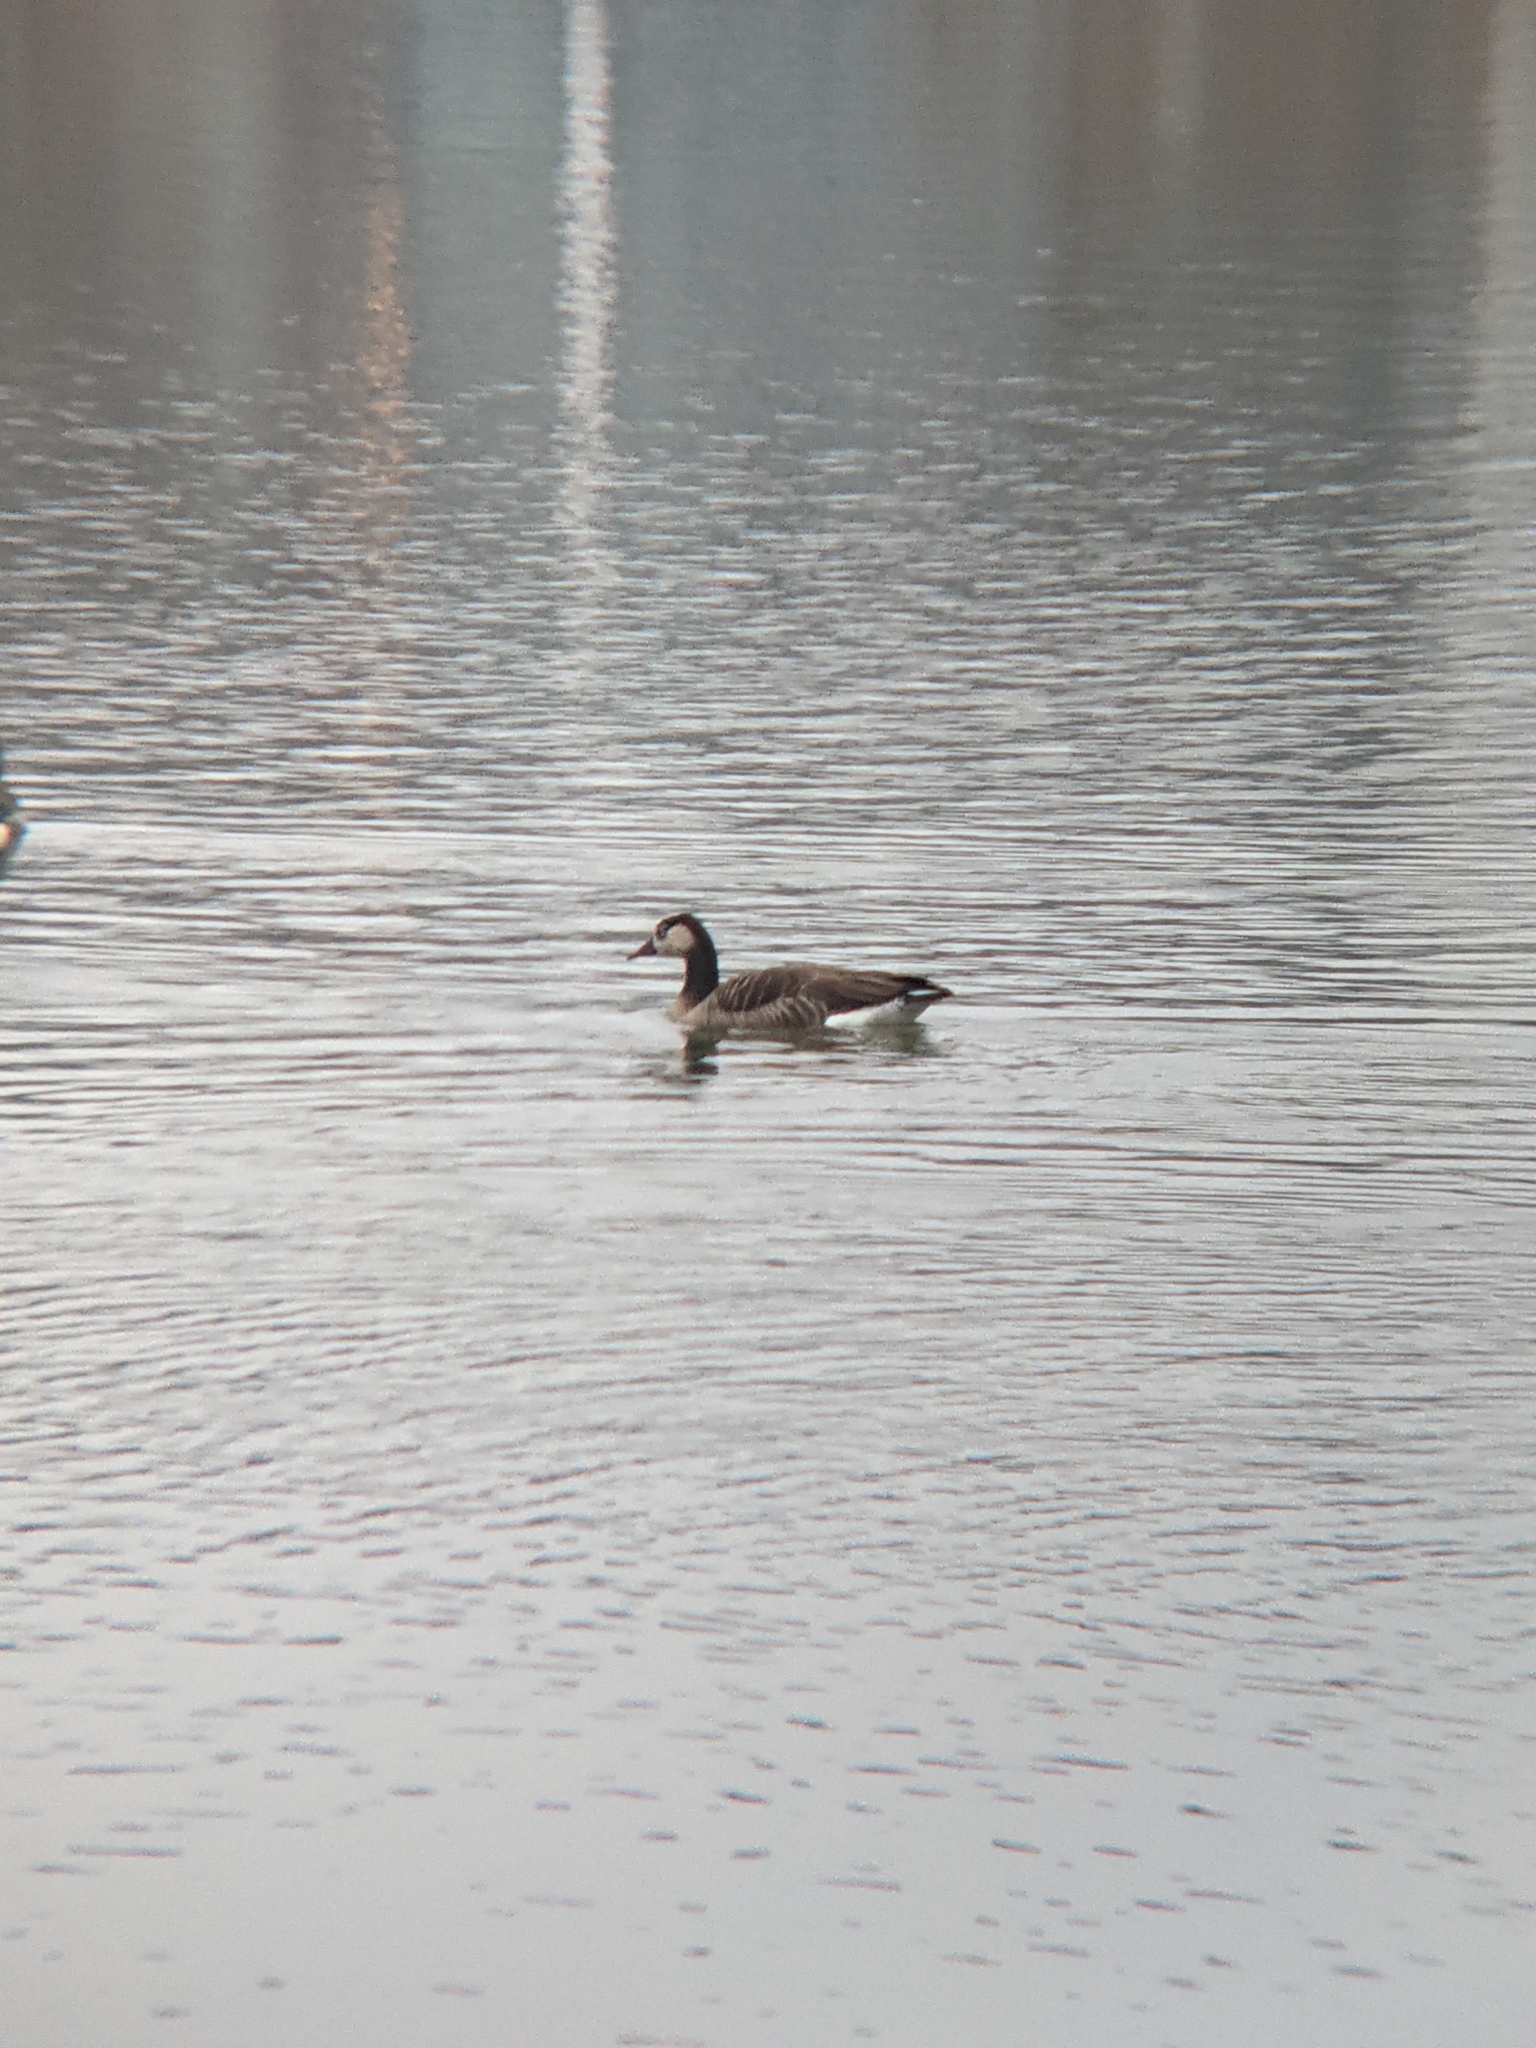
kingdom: Animalia
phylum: Chordata
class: Aves
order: Anseriformes
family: Anatidae
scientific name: Anatidae
